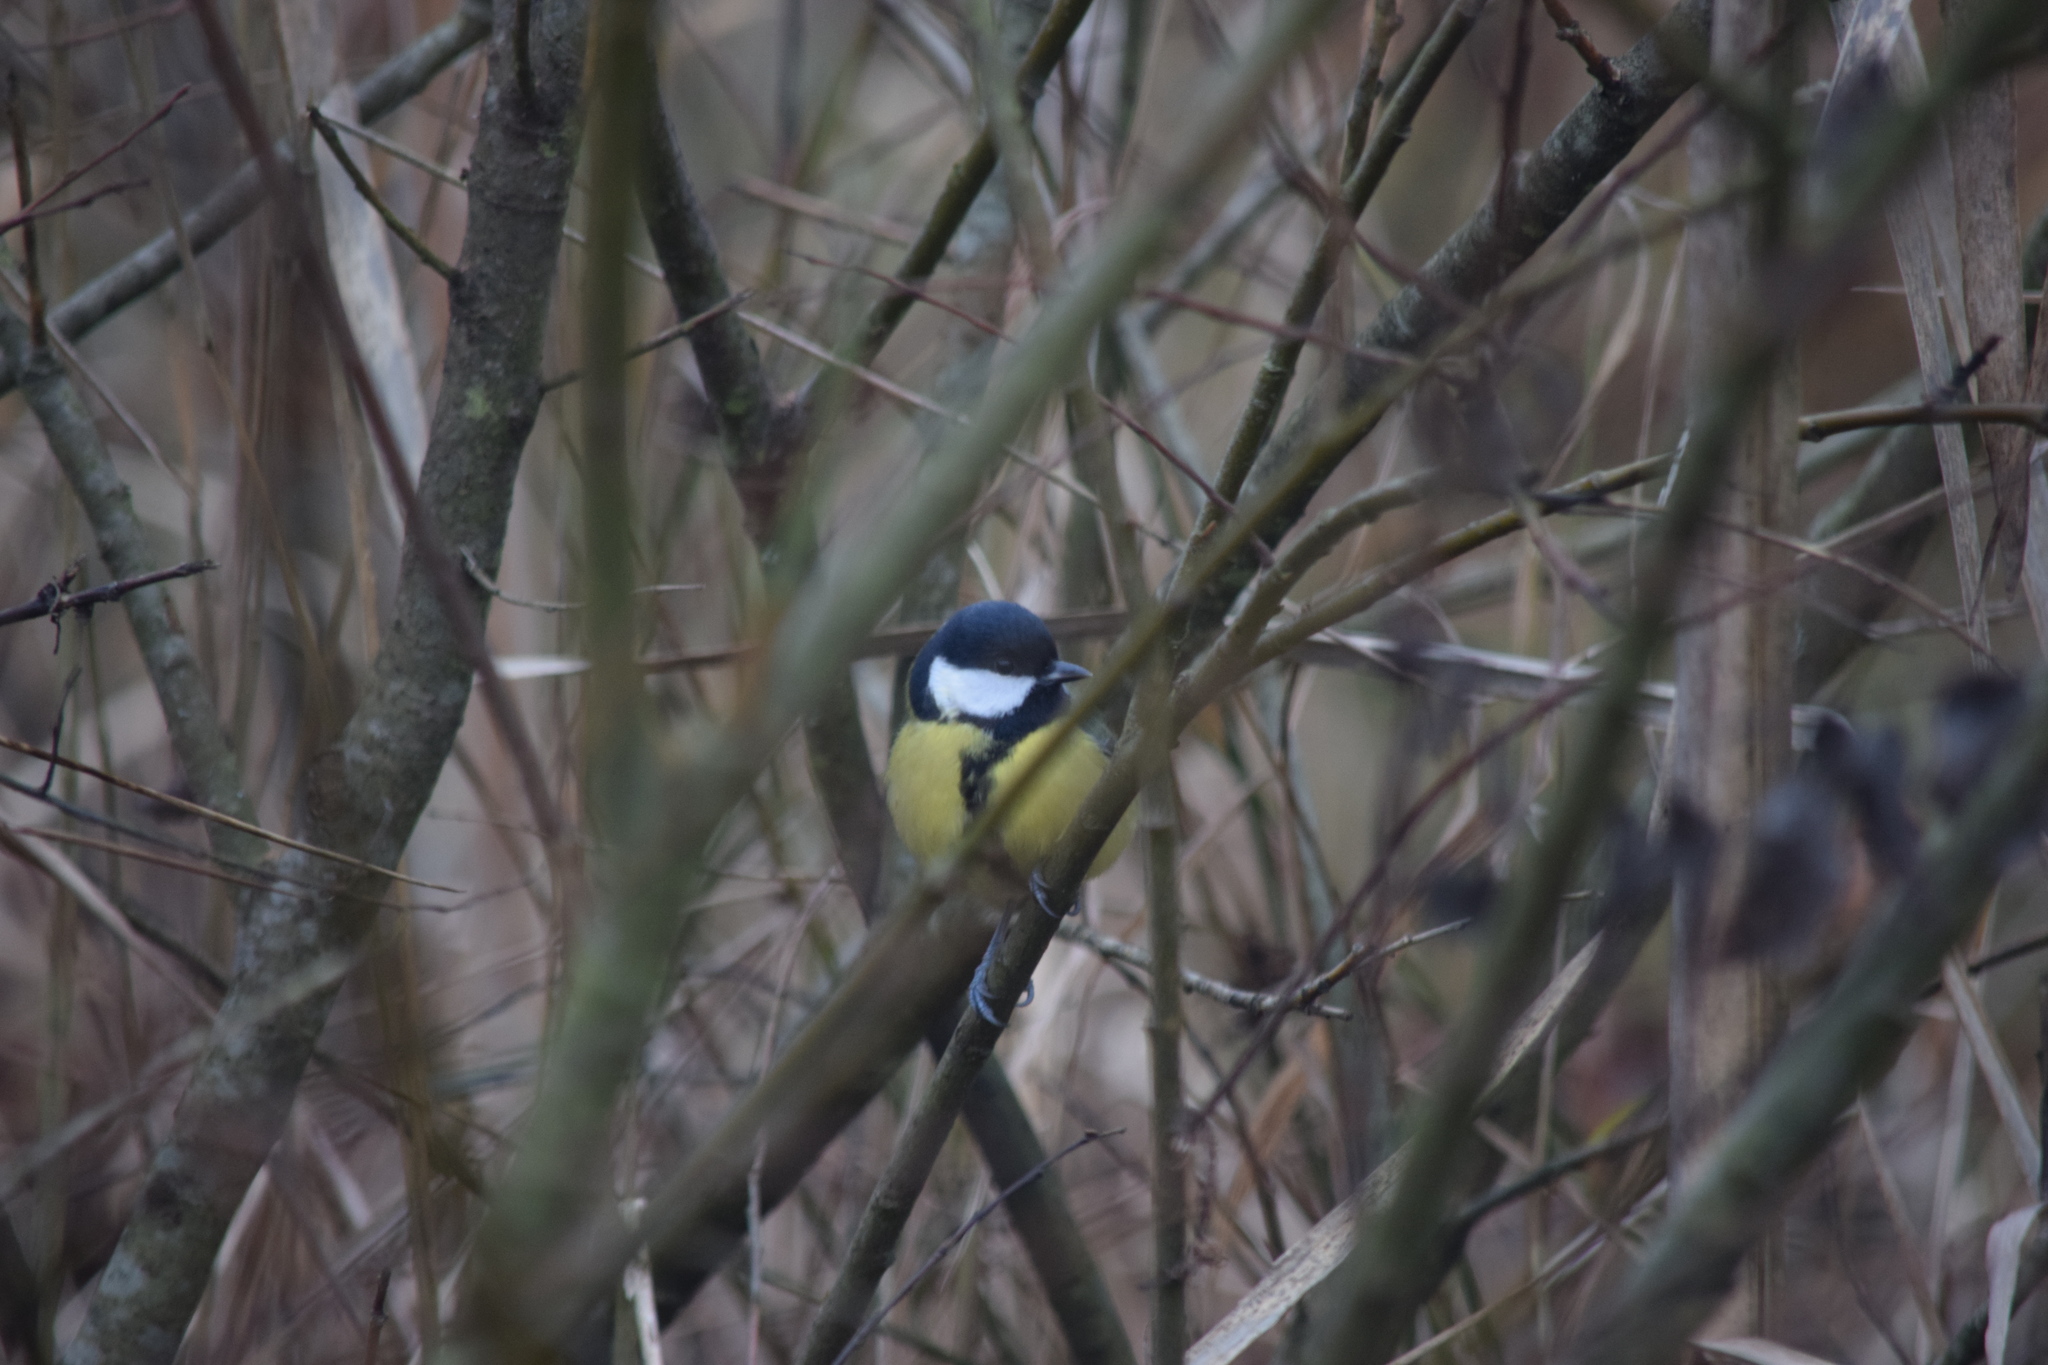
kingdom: Animalia
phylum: Chordata
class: Aves
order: Passeriformes
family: Paridae
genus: Parus
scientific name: Parus major
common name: Great tit
